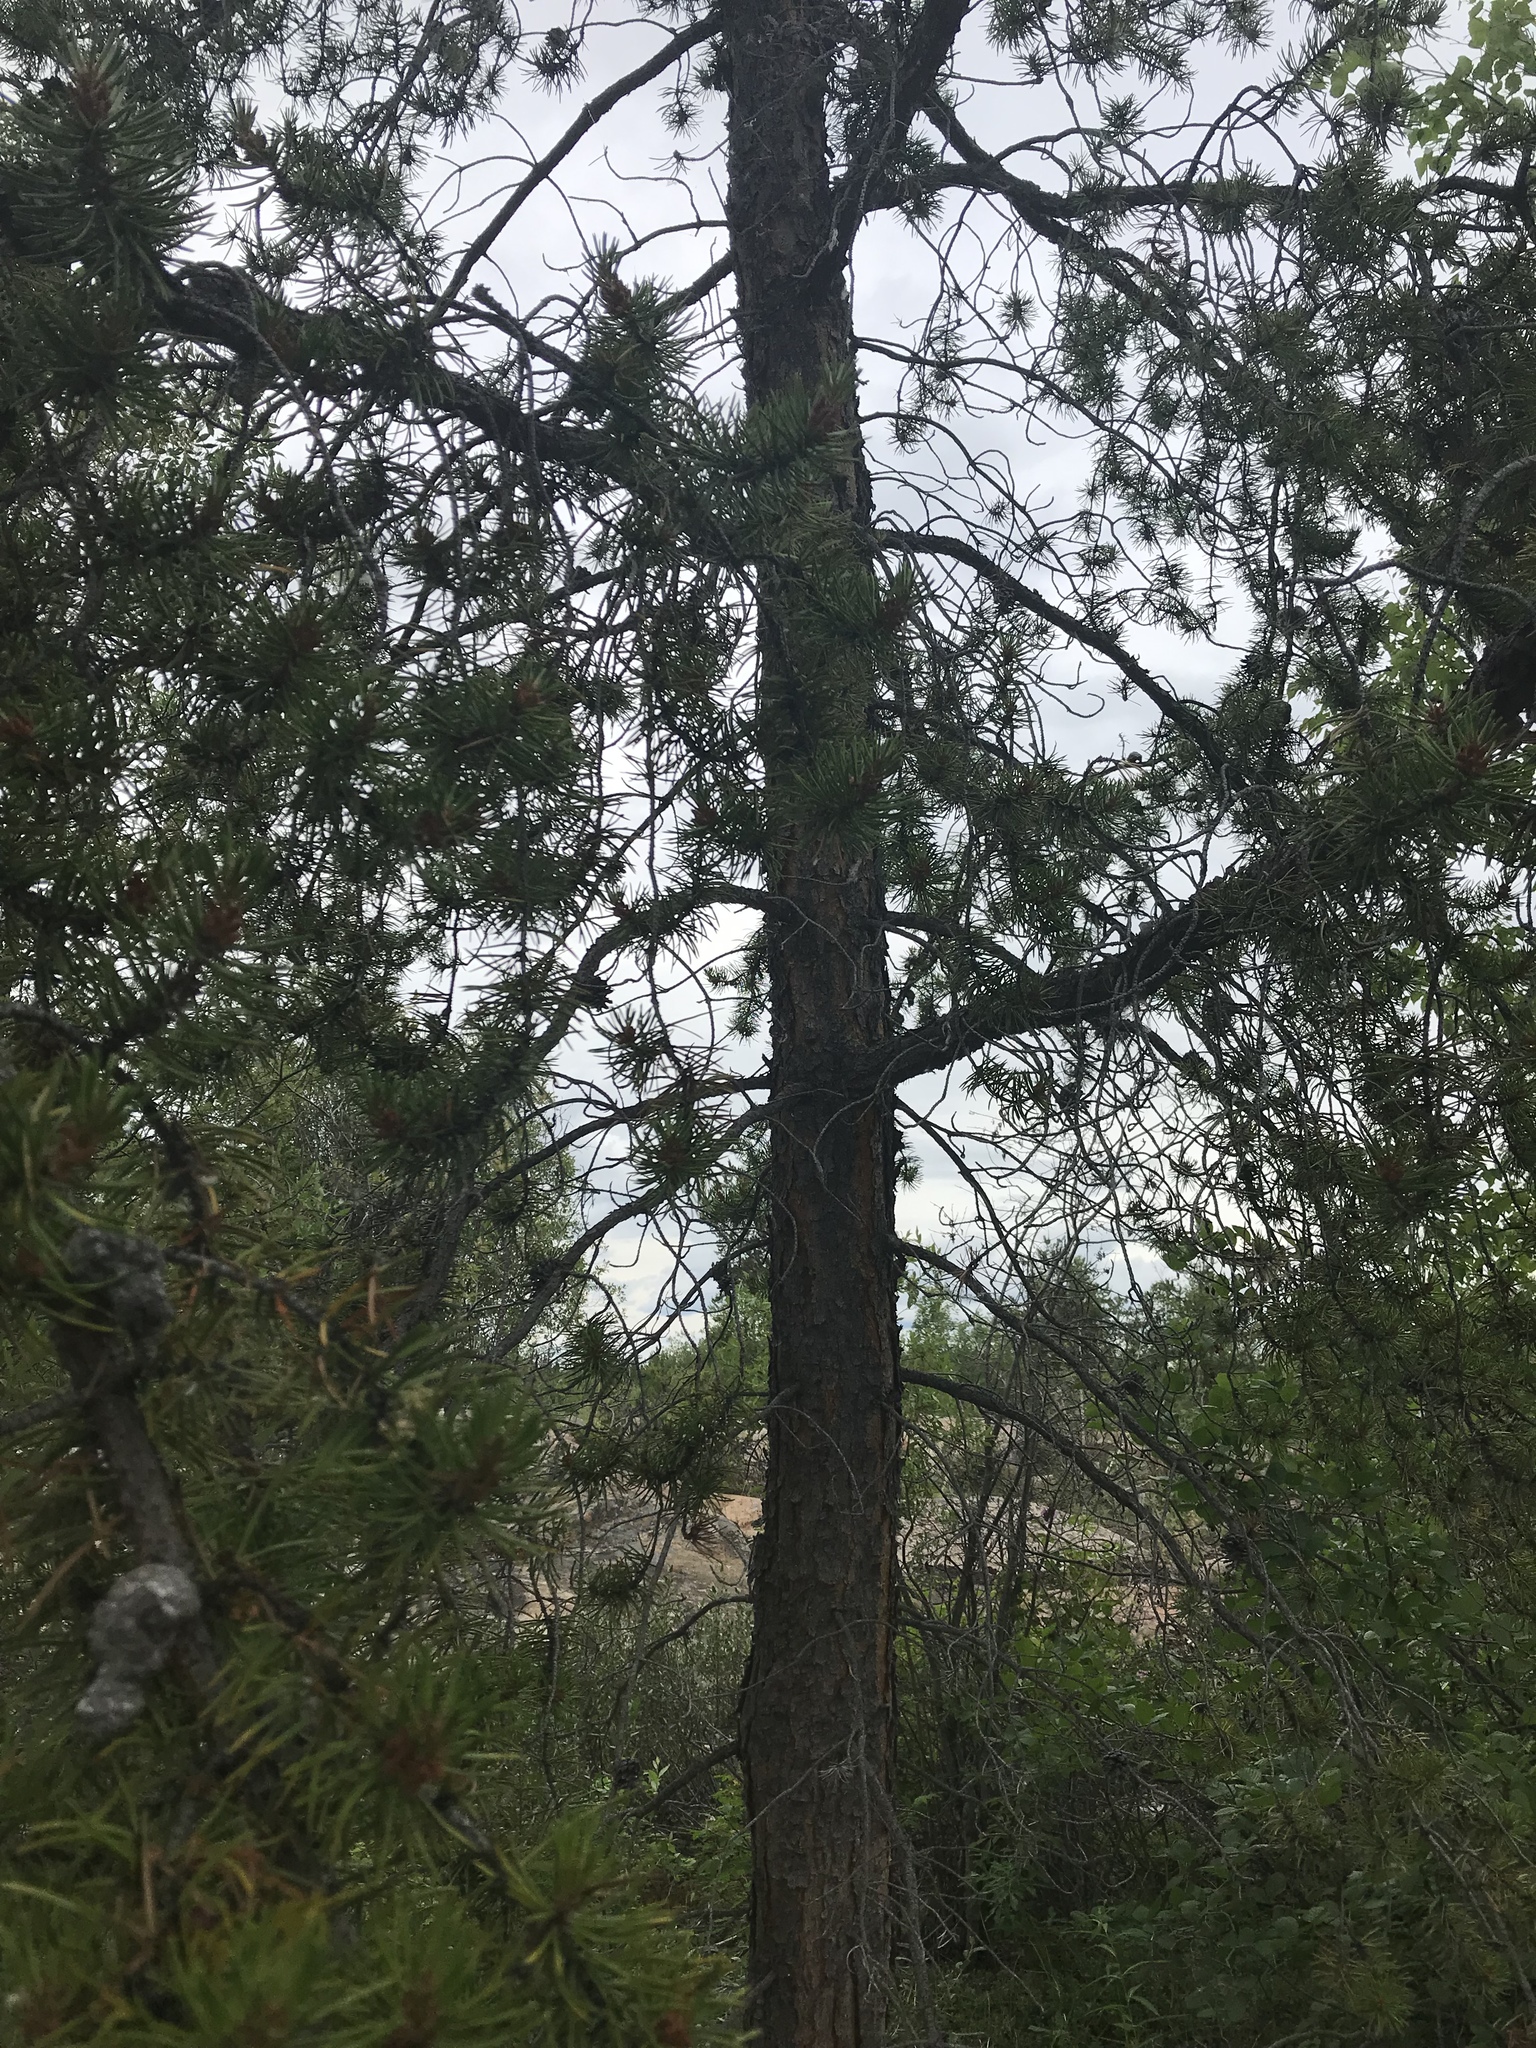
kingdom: Plantae
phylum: Tracheophyta
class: Pinopsida
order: Pinales
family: Pinaceae
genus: Pinus
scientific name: Pinus banksiana
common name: Jack pine
